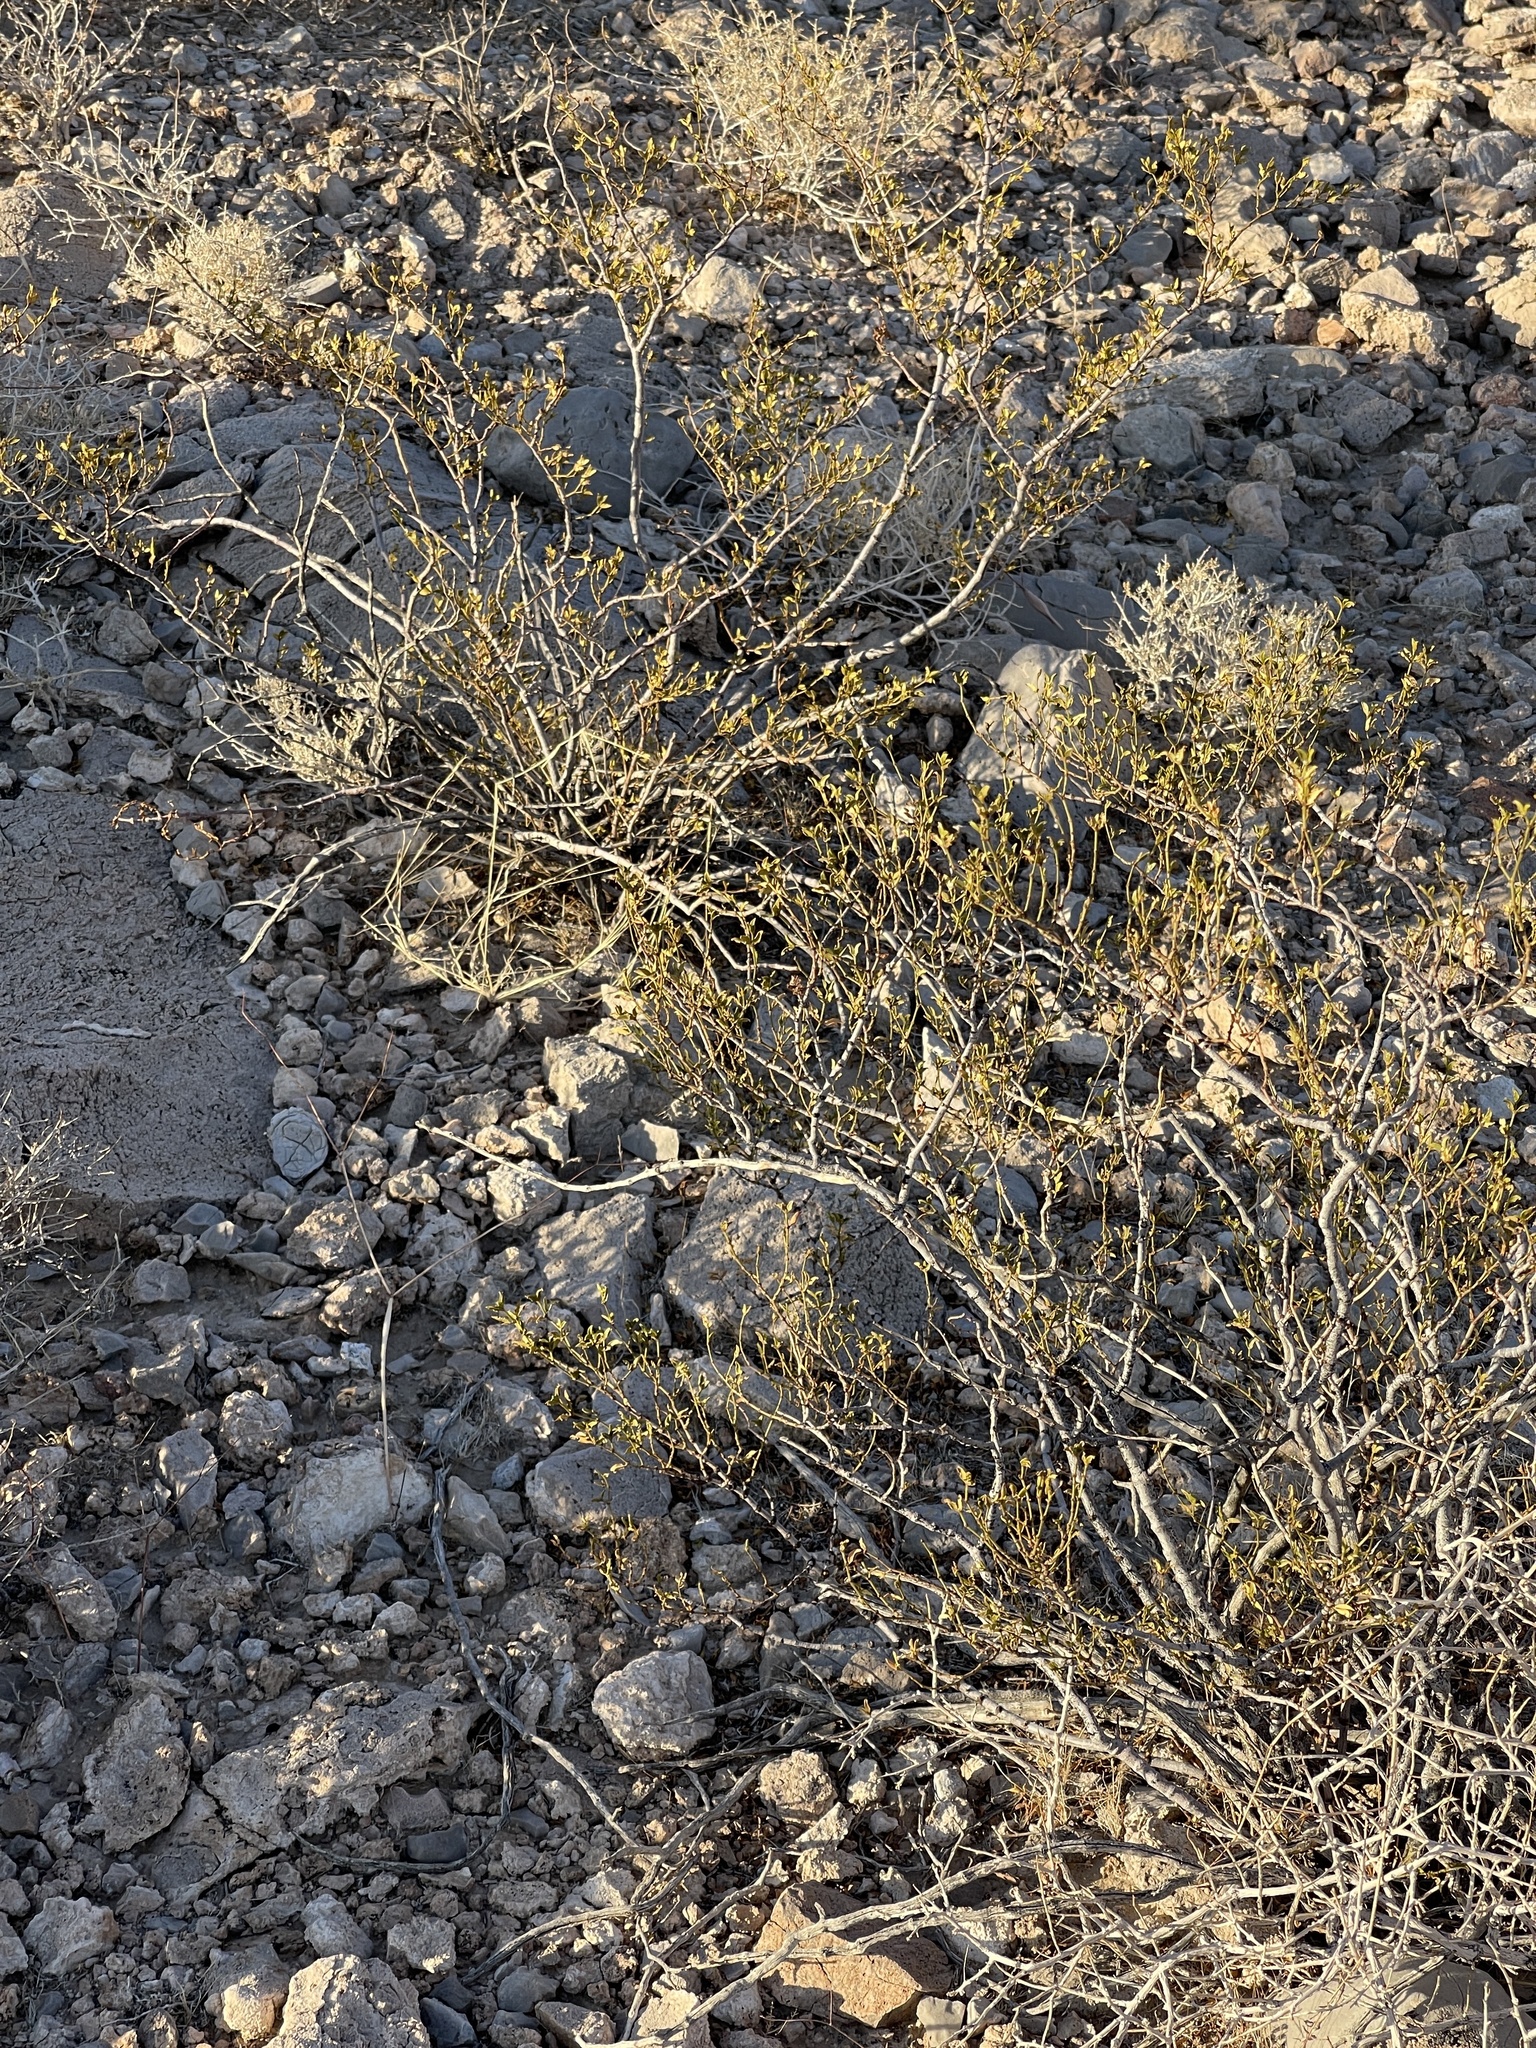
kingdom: Plantae
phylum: Tracheophyta
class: Magnoliopsida
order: Zygophyllales
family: Zygophyllaceae
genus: Larrea
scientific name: Larrea tridentata
